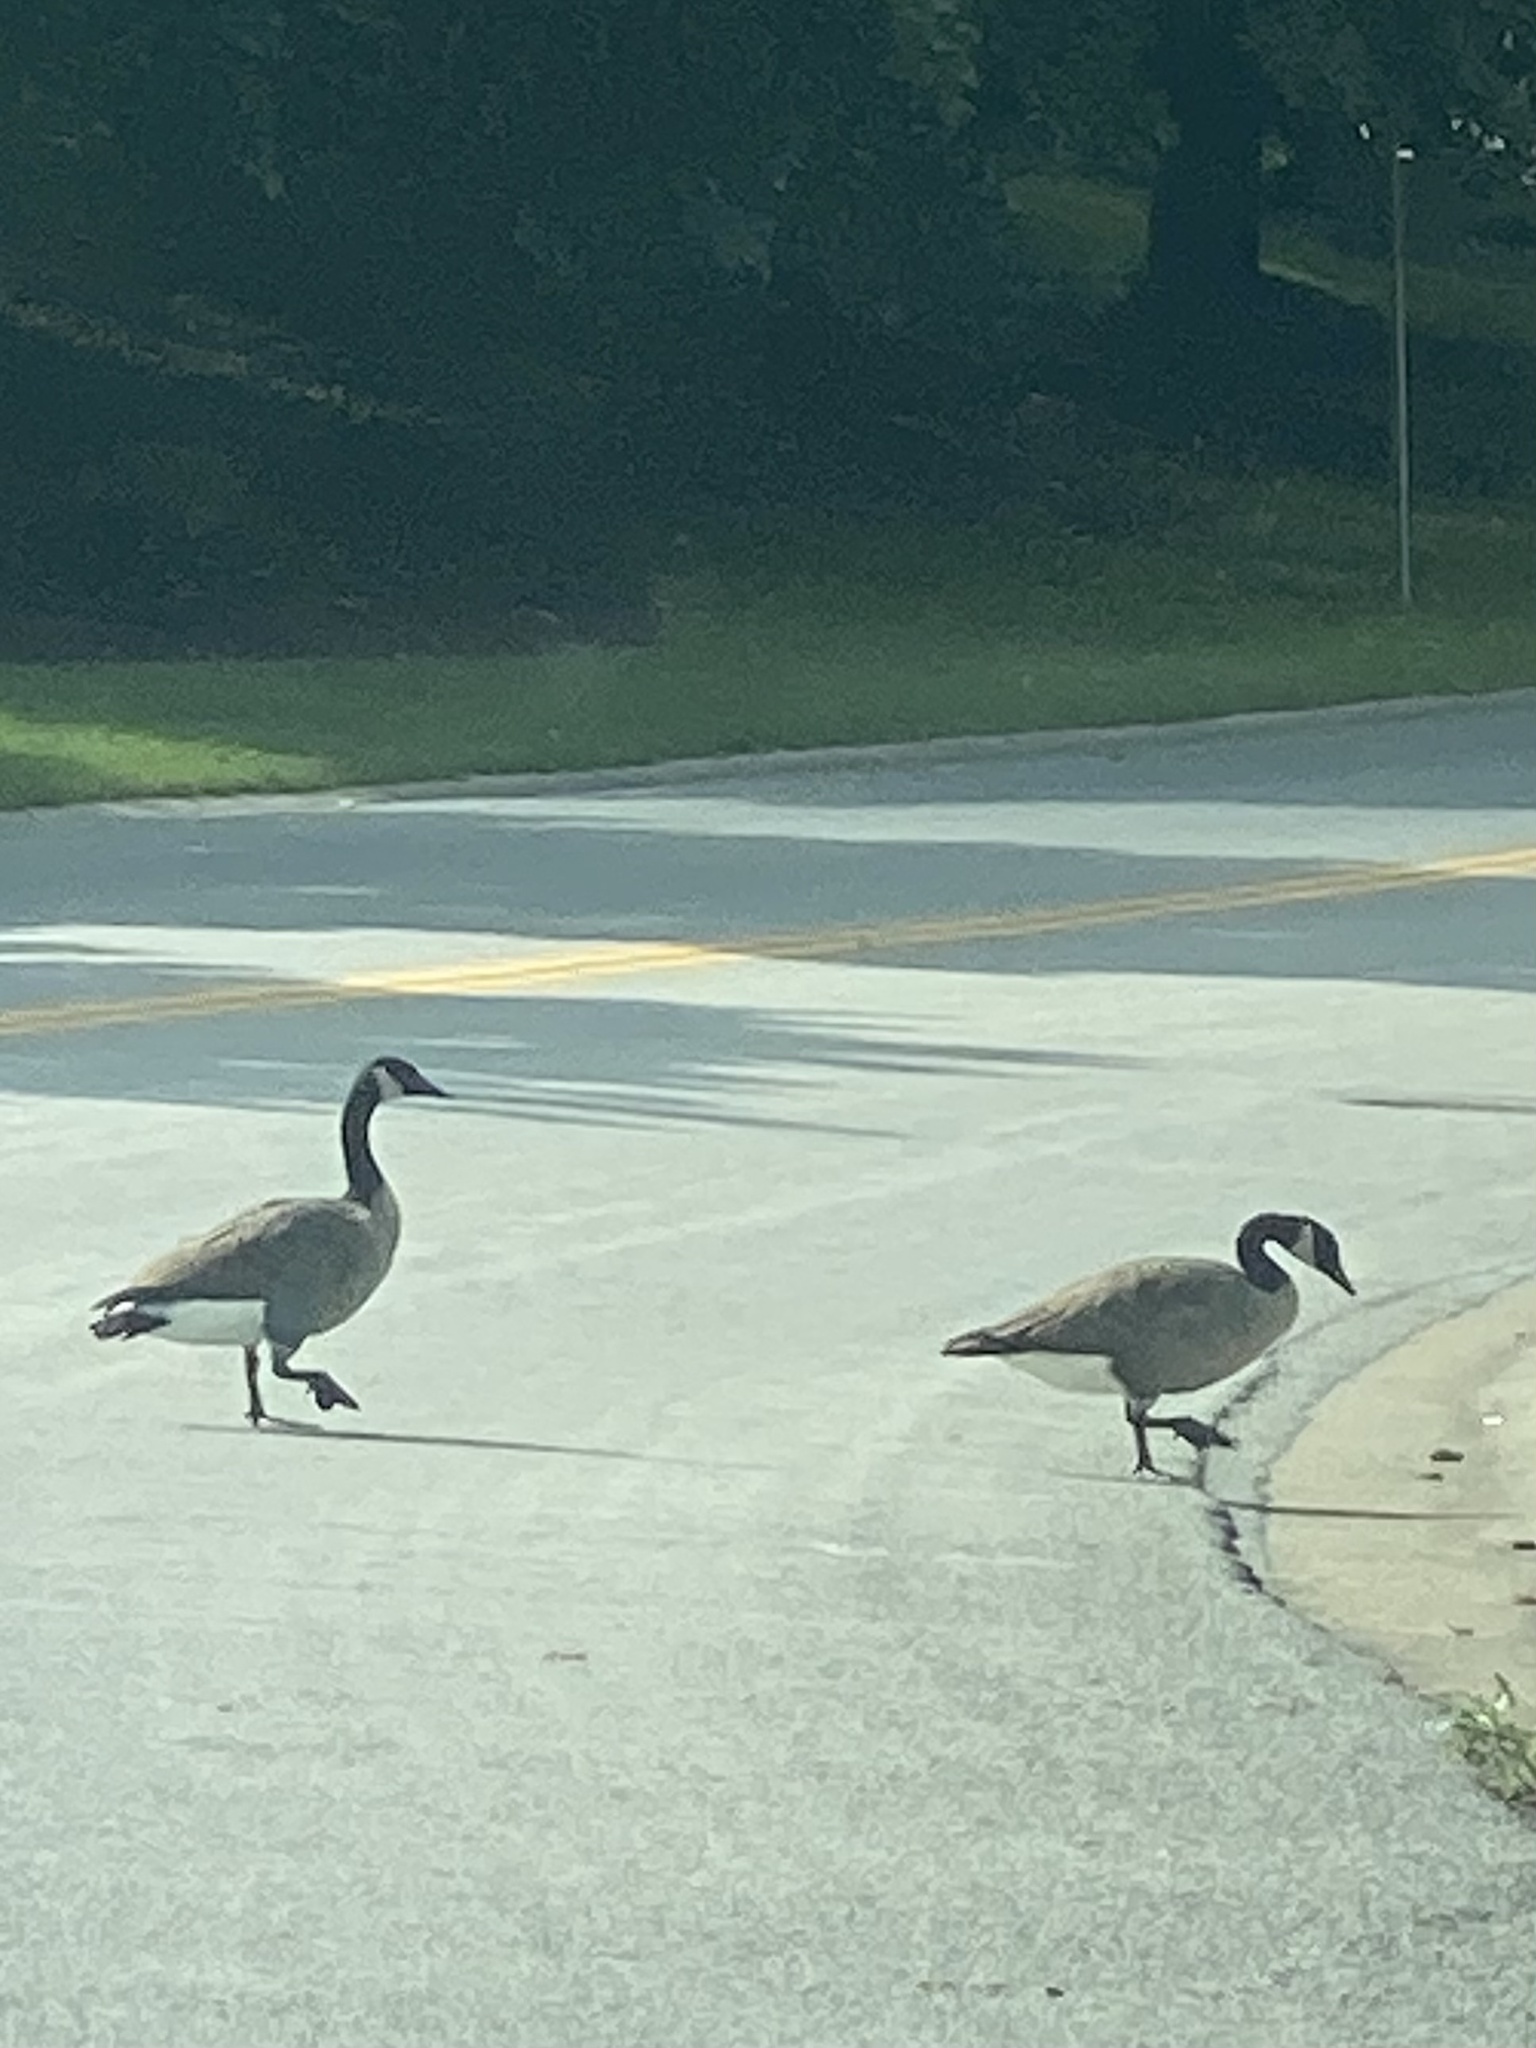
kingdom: Animalia
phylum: Chordata
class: Aves
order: Anseriformes
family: Anatidae
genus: Branta
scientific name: Branta canadensis
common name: Canada goose
